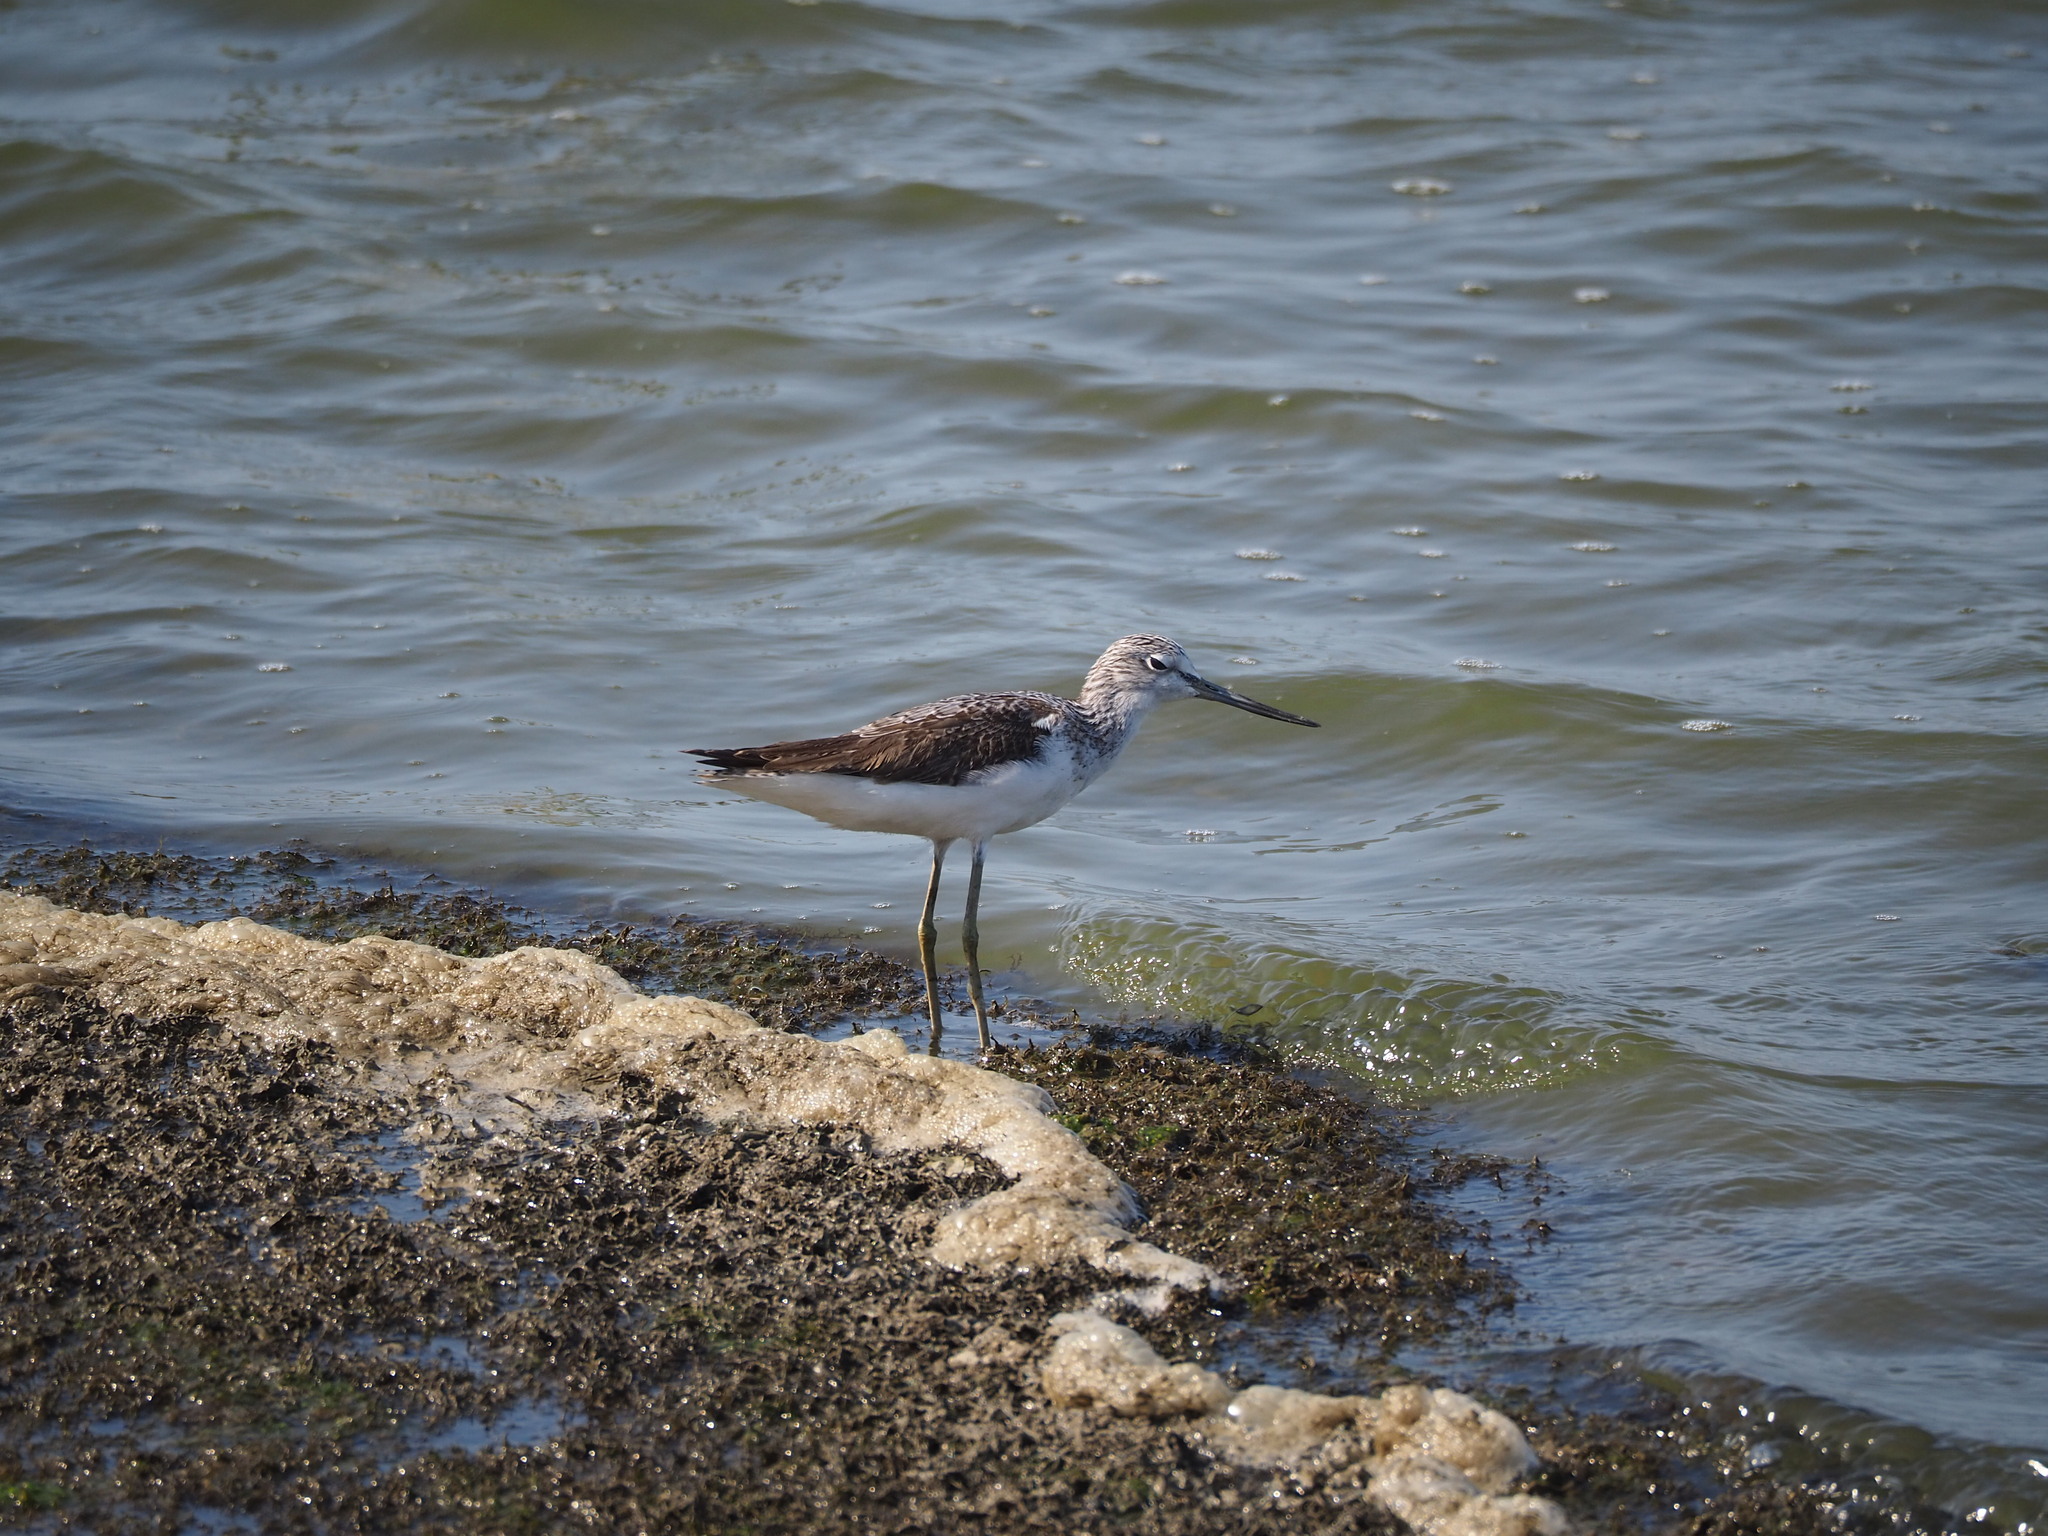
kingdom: Animalia
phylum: Chordata
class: Aves
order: Charadriiformes
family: Scolopacidae
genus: Tringa
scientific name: Tringa nebularia
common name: Common greenshank
